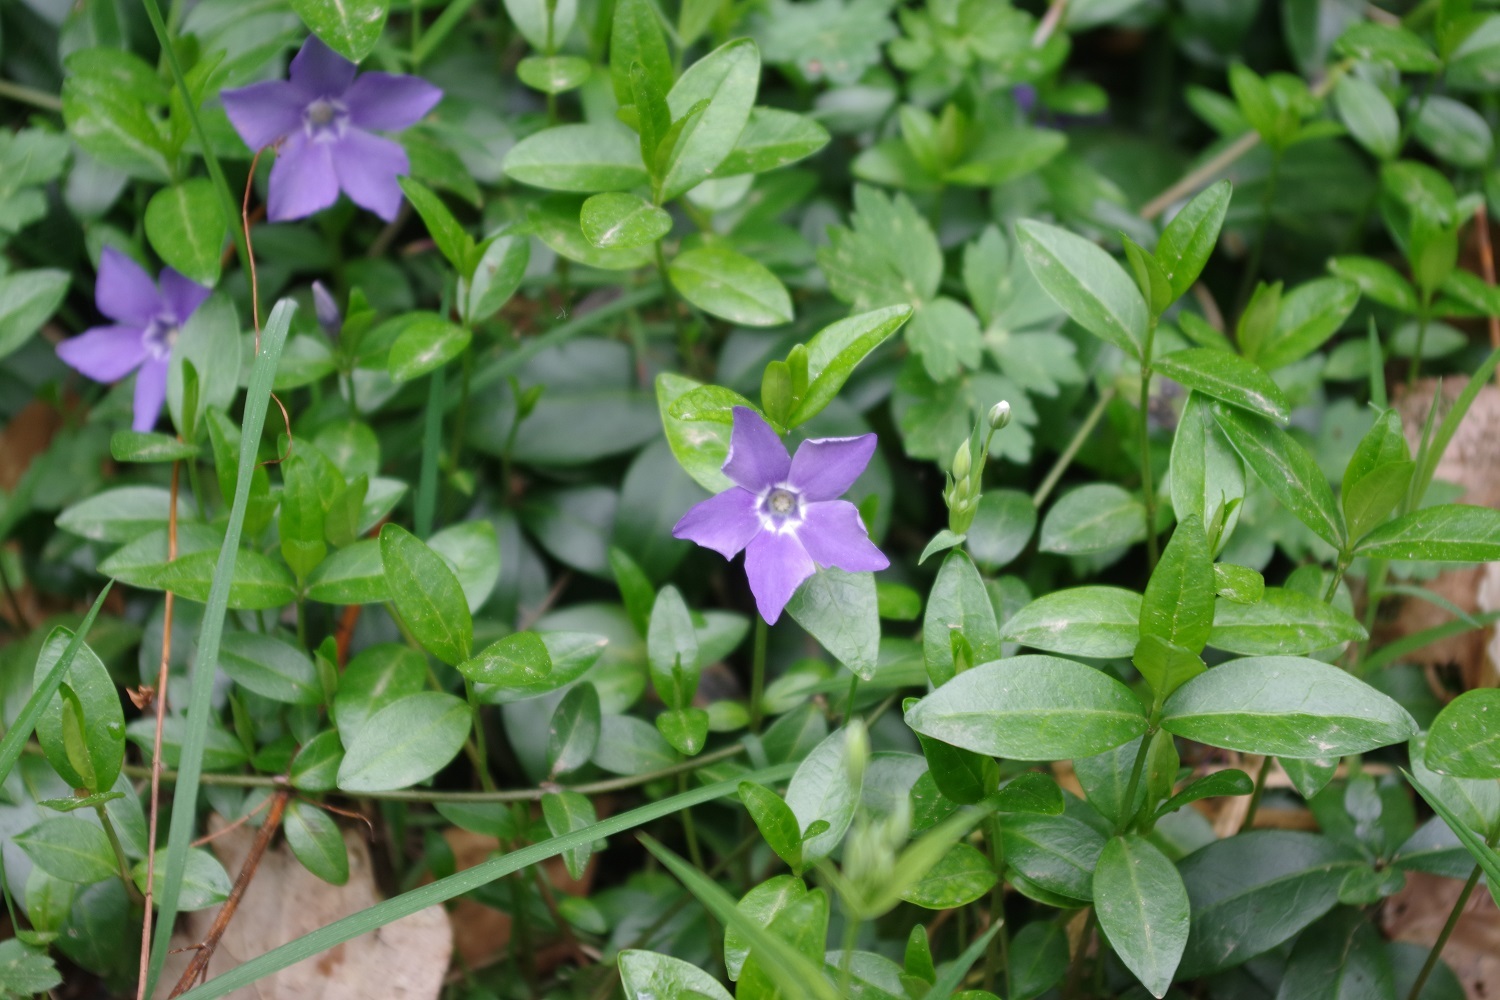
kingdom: Plantae
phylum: Tracheophyta
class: Magnoliopsida
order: Gentianales
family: Apocynaceae
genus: Vinca
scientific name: Vinca minor
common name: Lesser periwinkle
